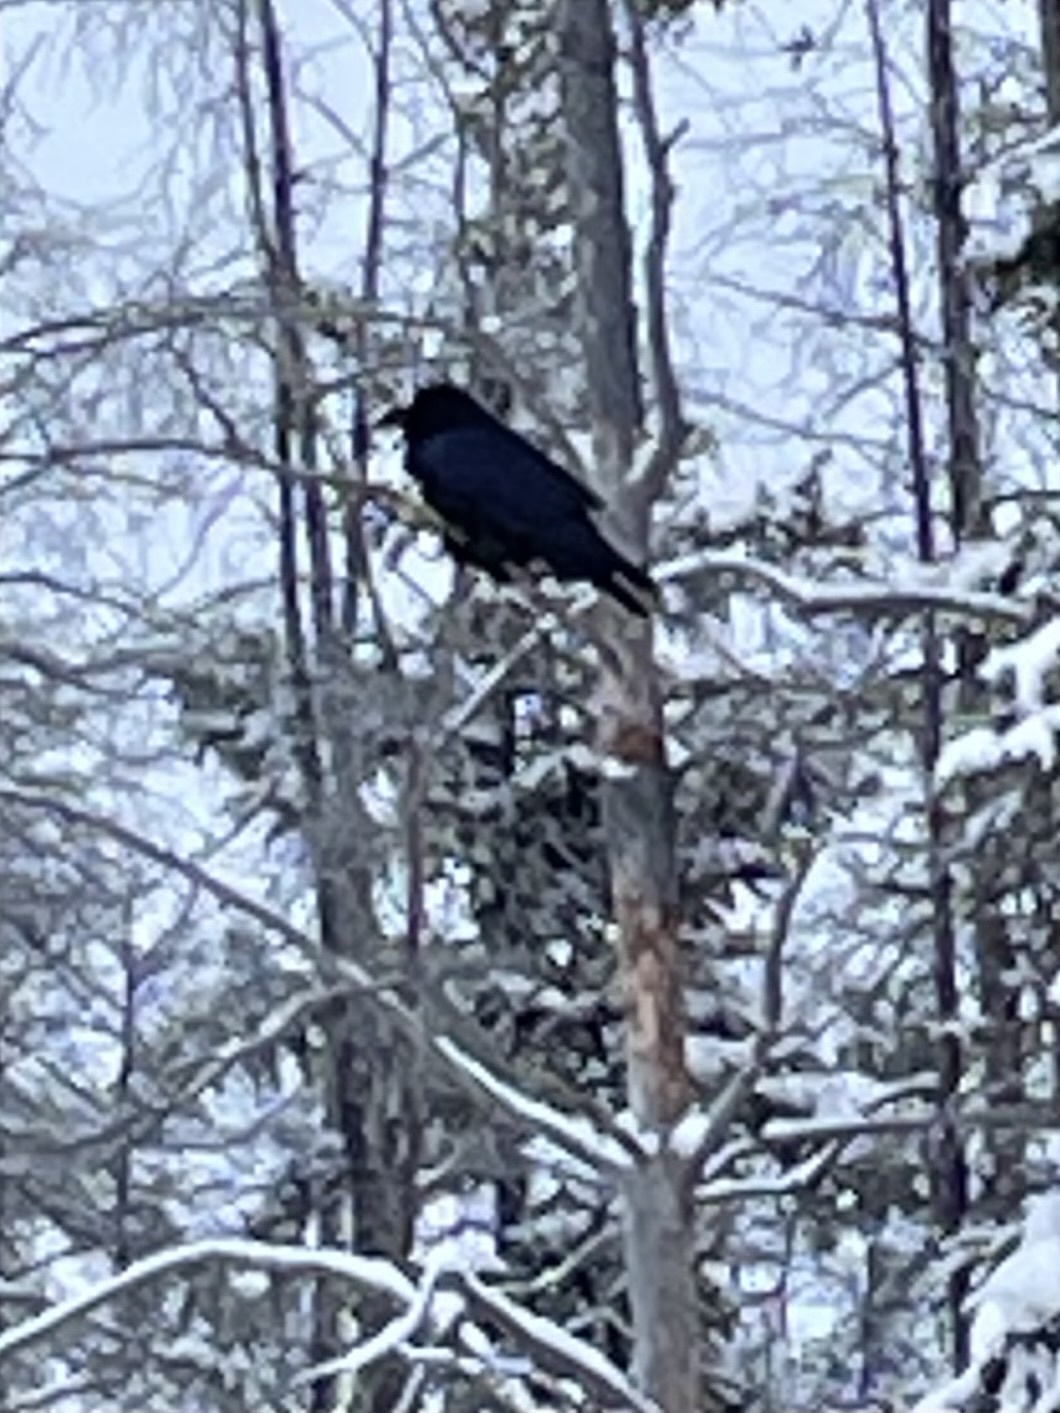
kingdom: Animalia
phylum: Chordata
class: Aves
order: Passeriformes
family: Corvidae
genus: Corvus
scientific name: Corvus corax
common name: Common raven
